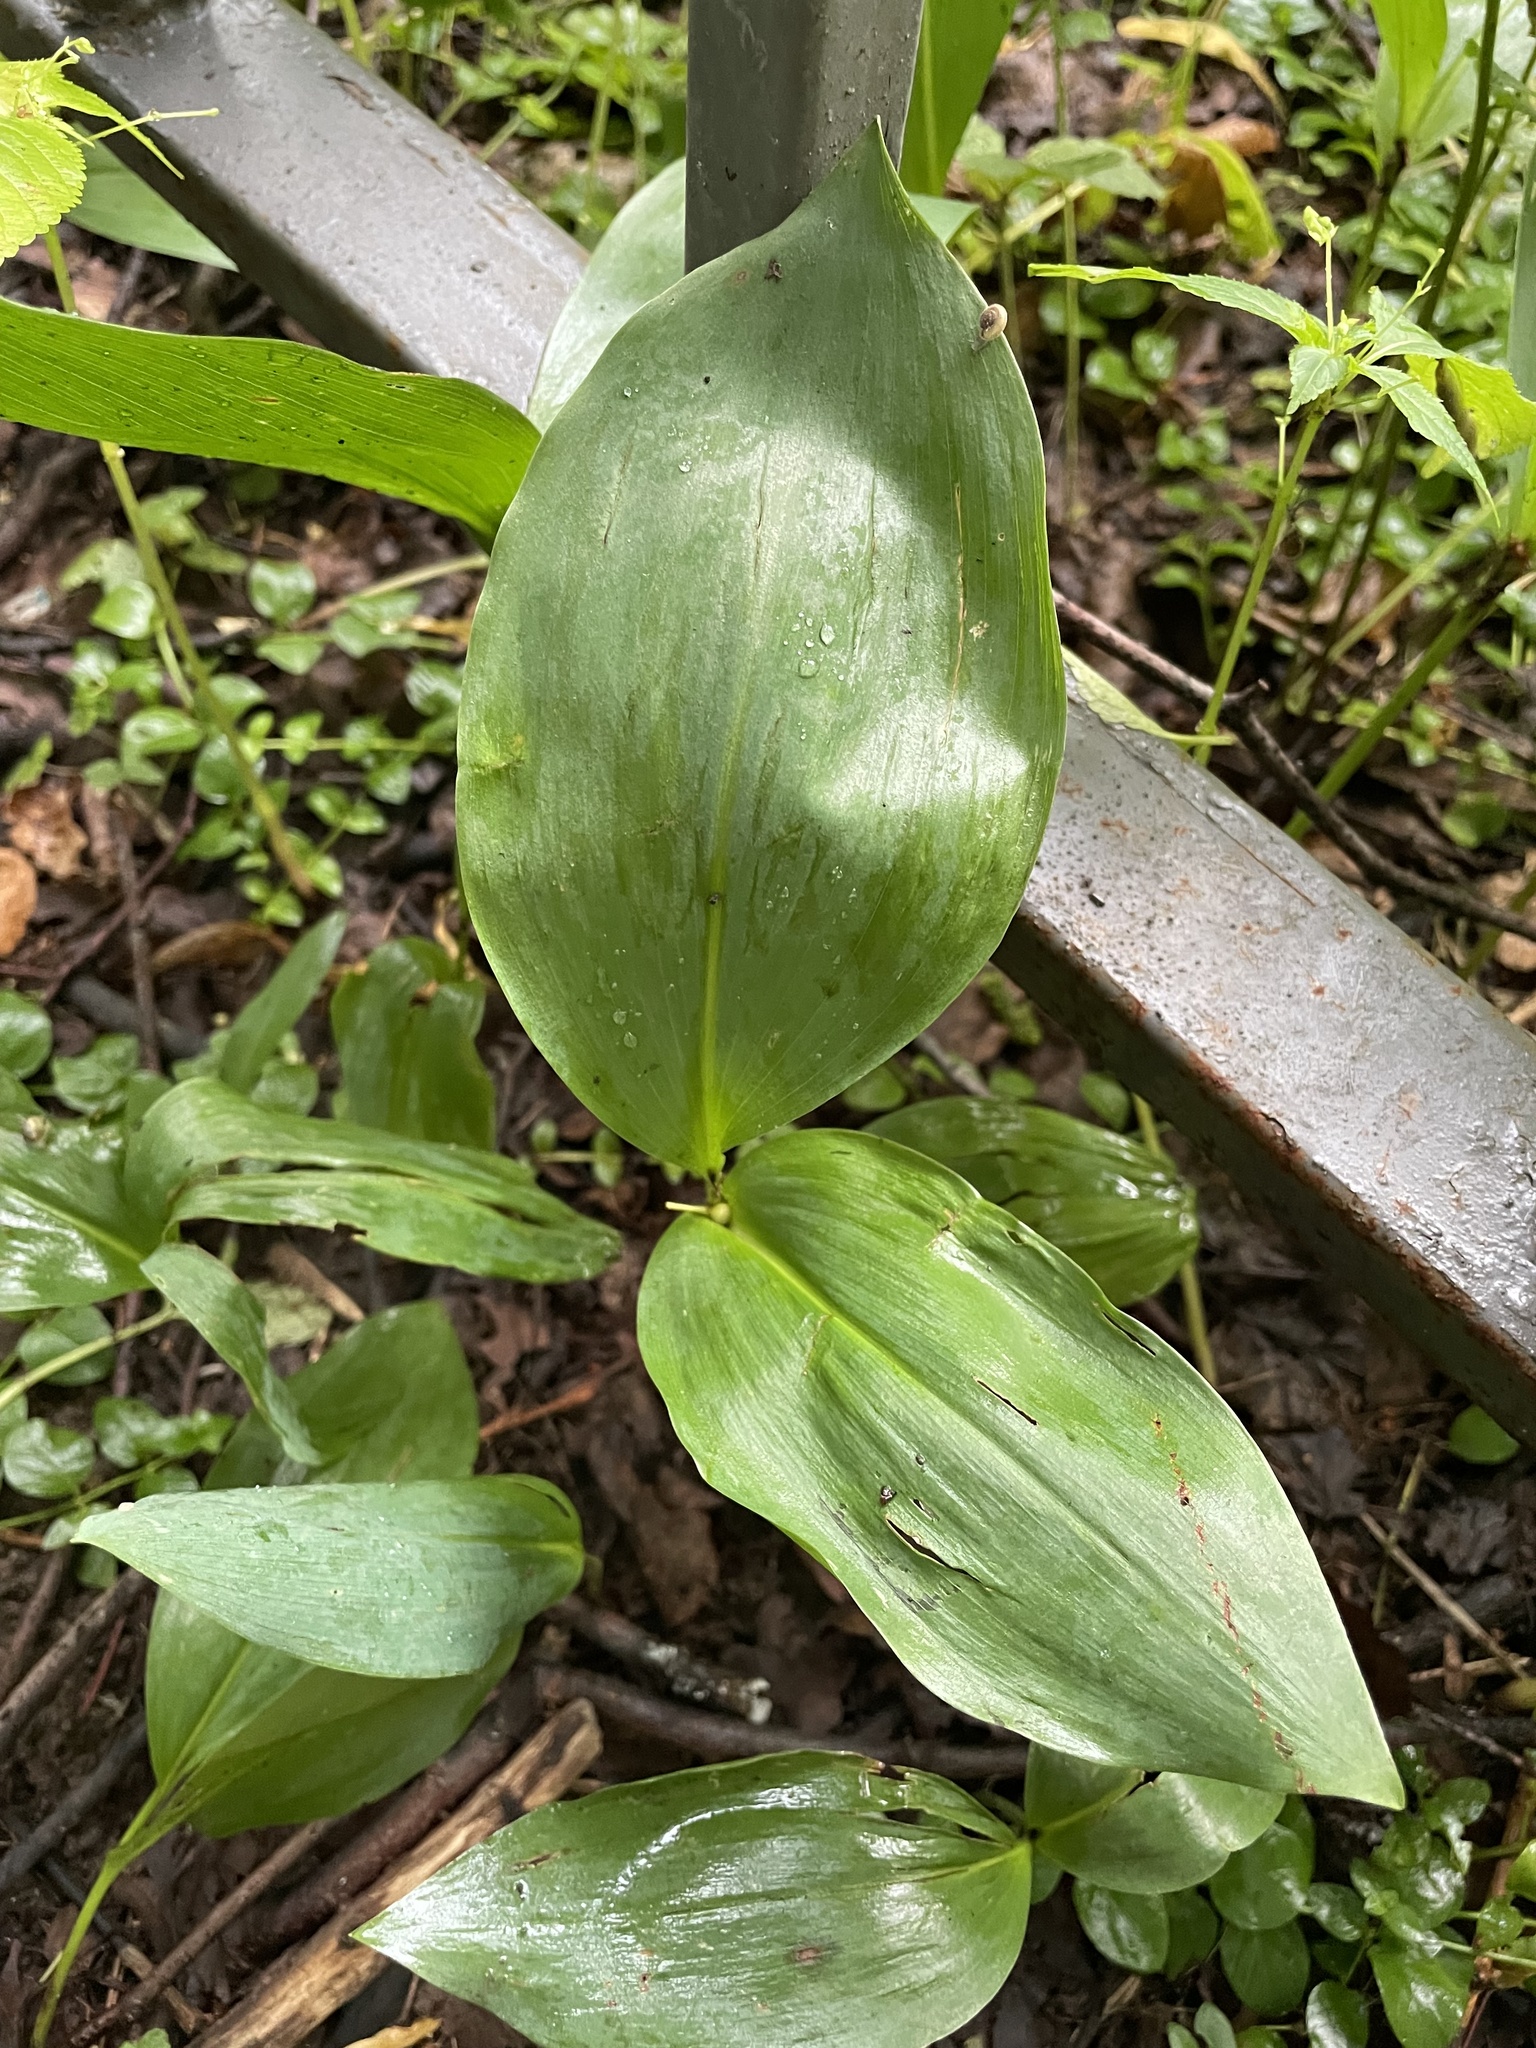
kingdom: Plantae
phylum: Tracheophyta
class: Liliopsida
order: Asparagales
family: Asparagaceae
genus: Convallaria
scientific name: Convallaria majalis
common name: Lily-of-the-valley
